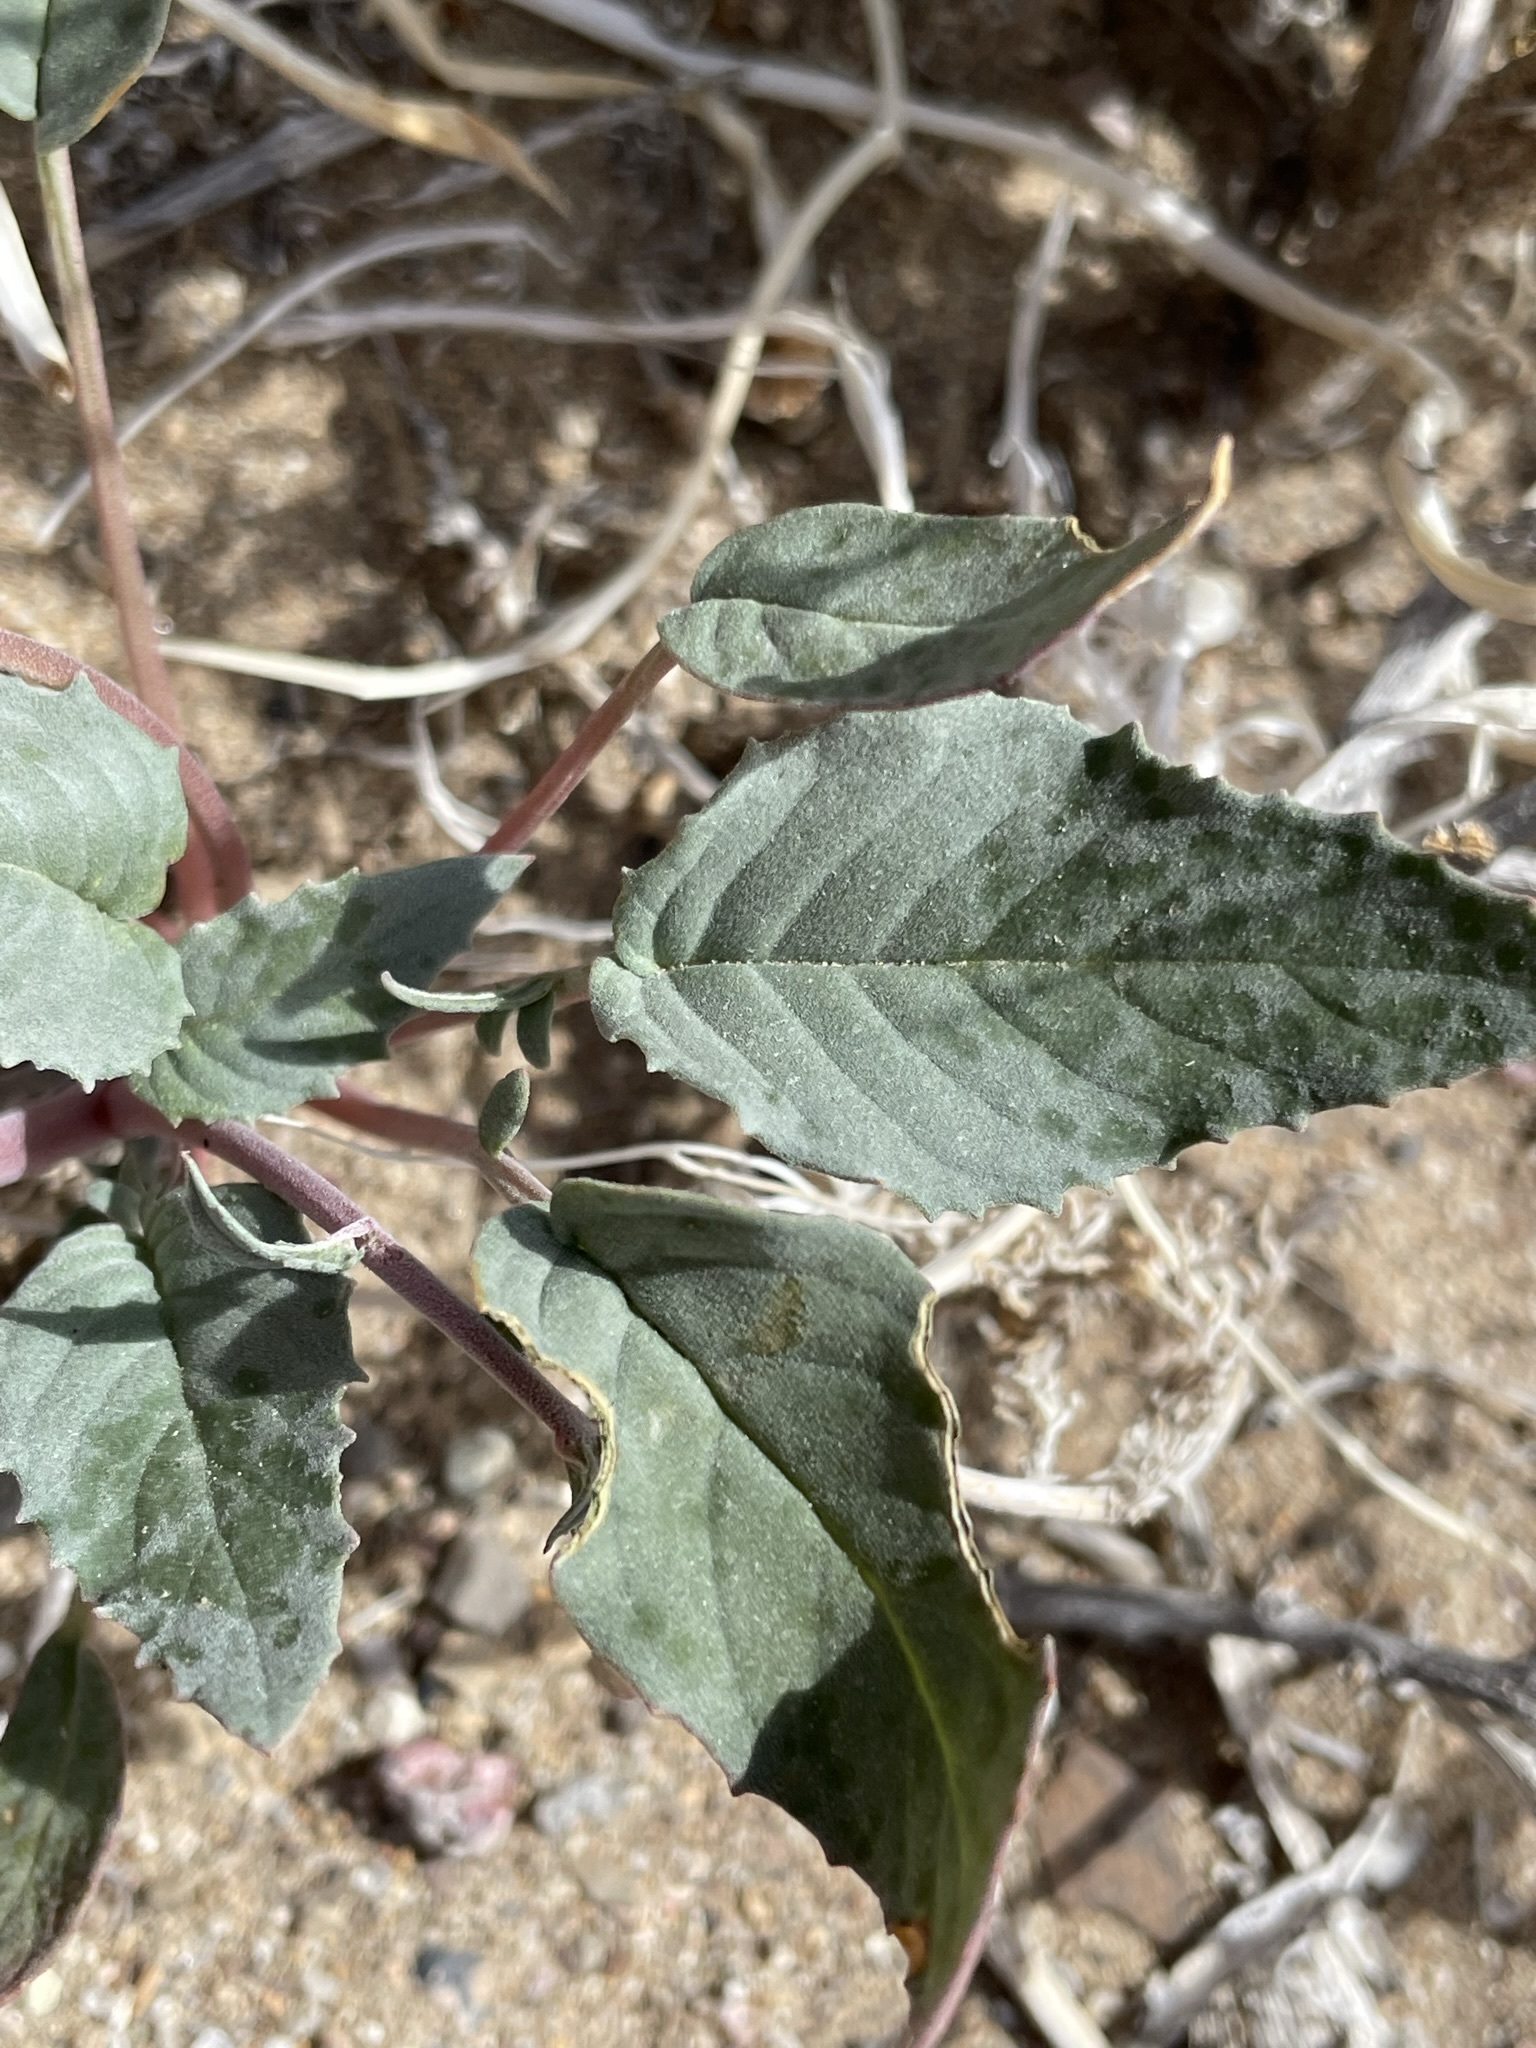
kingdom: Plantae
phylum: Tracheophyta
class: Magnoliopsida
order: Myrtales
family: Onagraceae
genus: Chylismia
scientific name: Chylismia claviformis
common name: Browneyes
